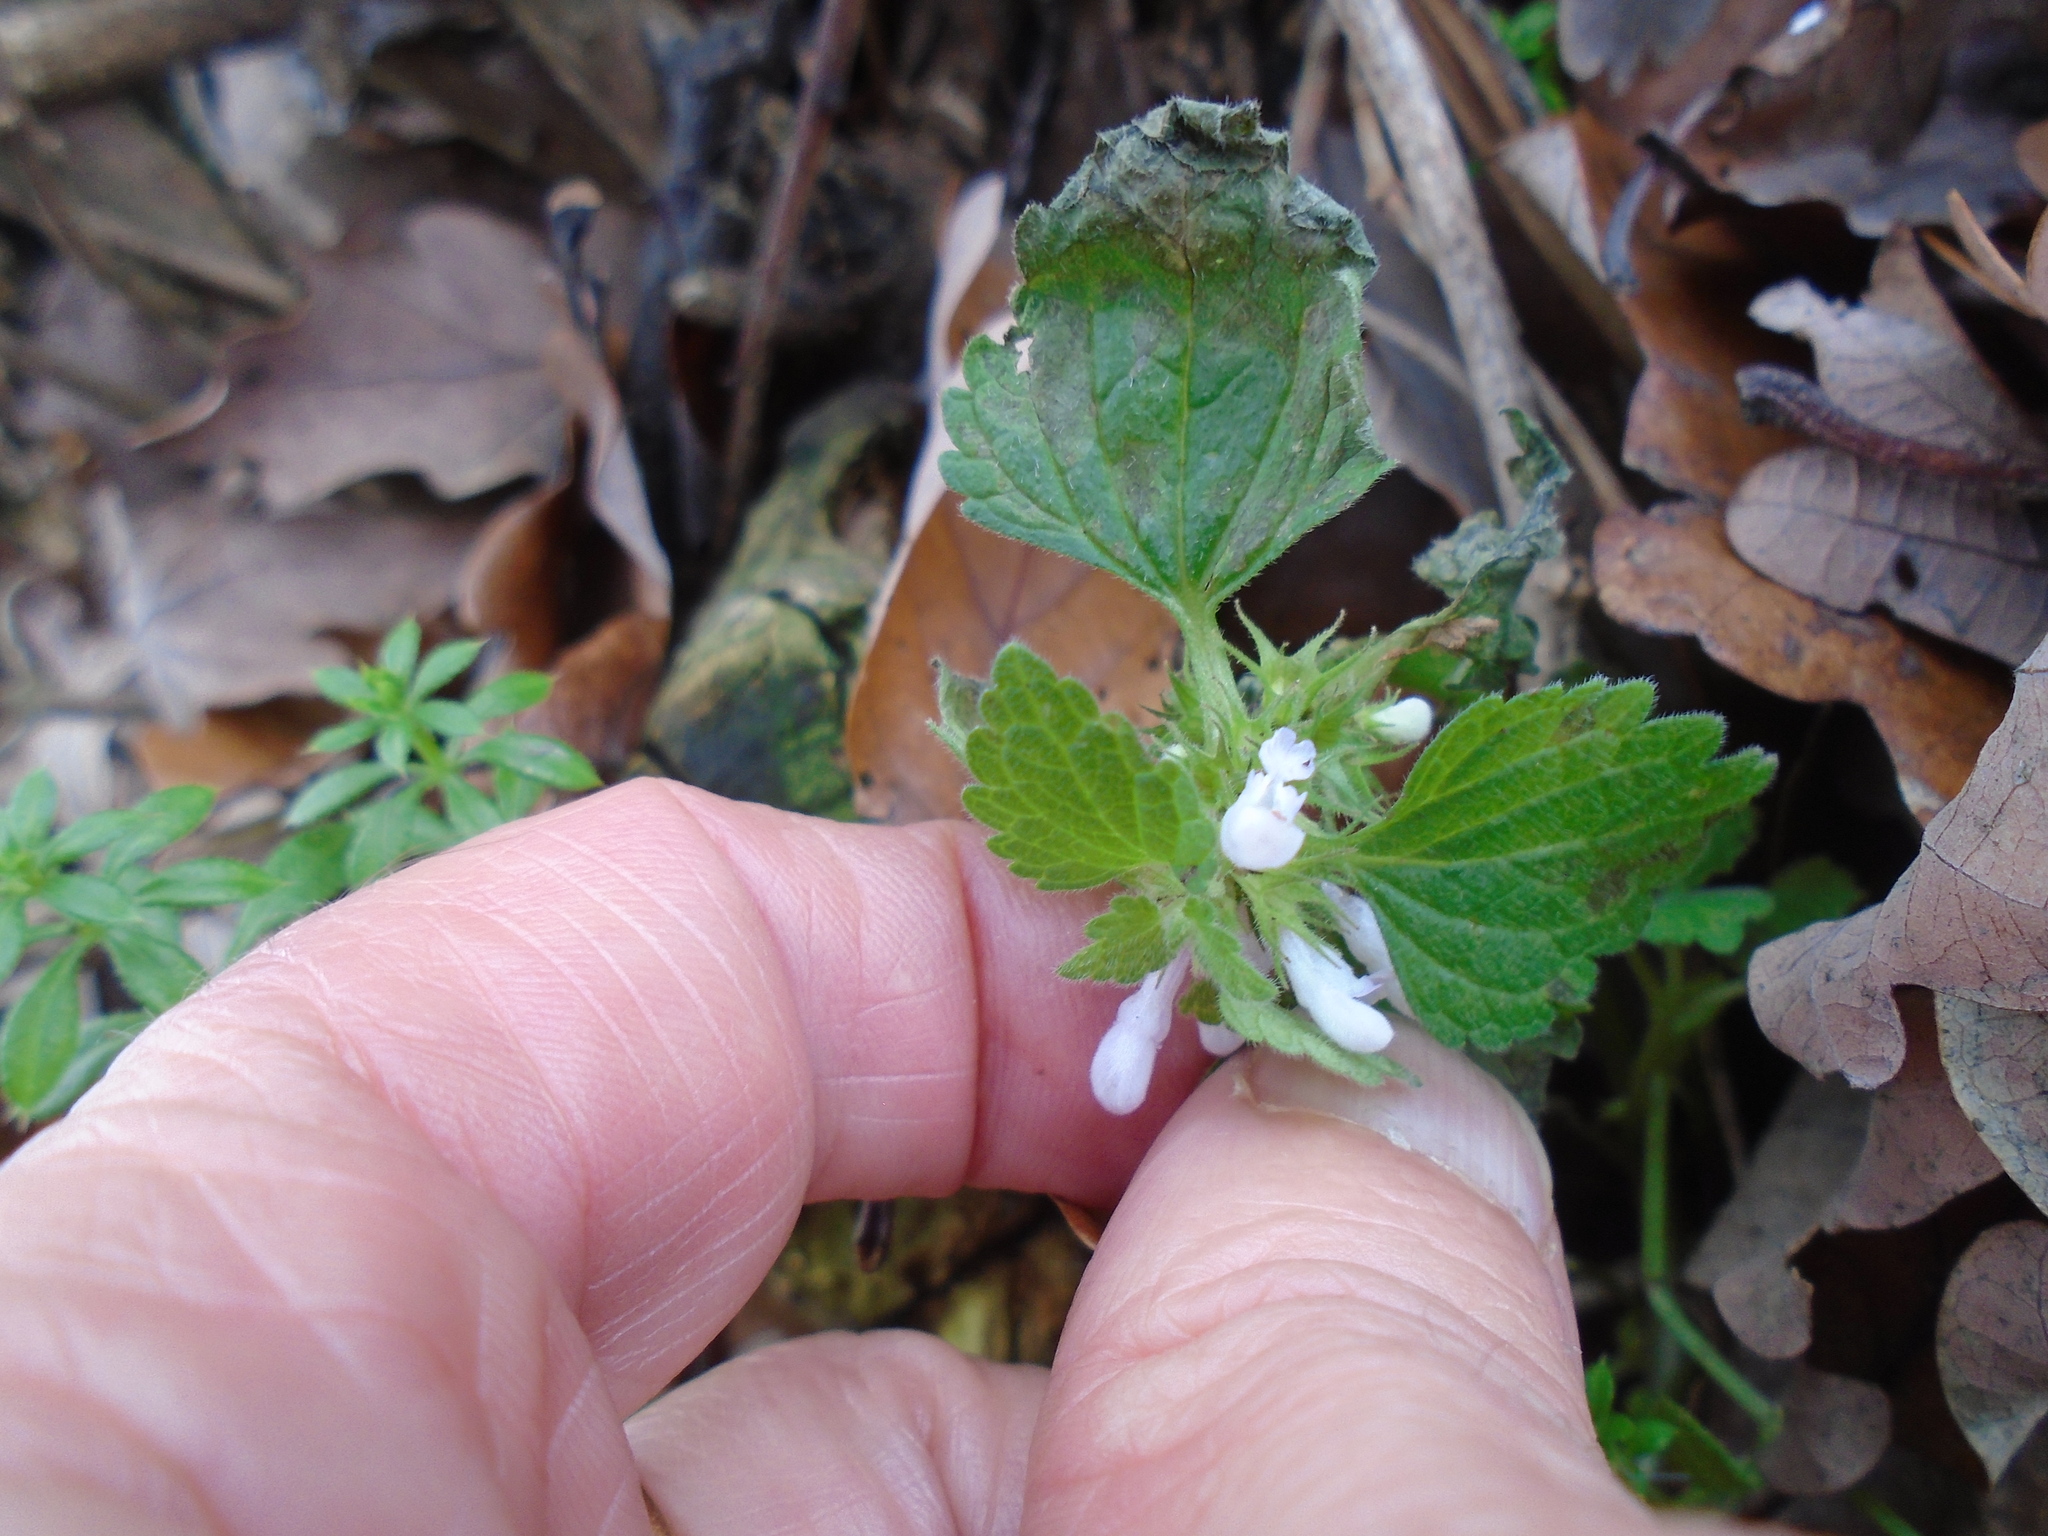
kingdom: Plantae
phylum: Tracheophyta
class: Magnoliopsida
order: Lamiales
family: Lamiaceae
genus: Lamium
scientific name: Lamium purpureum
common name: Red dead-nettle
